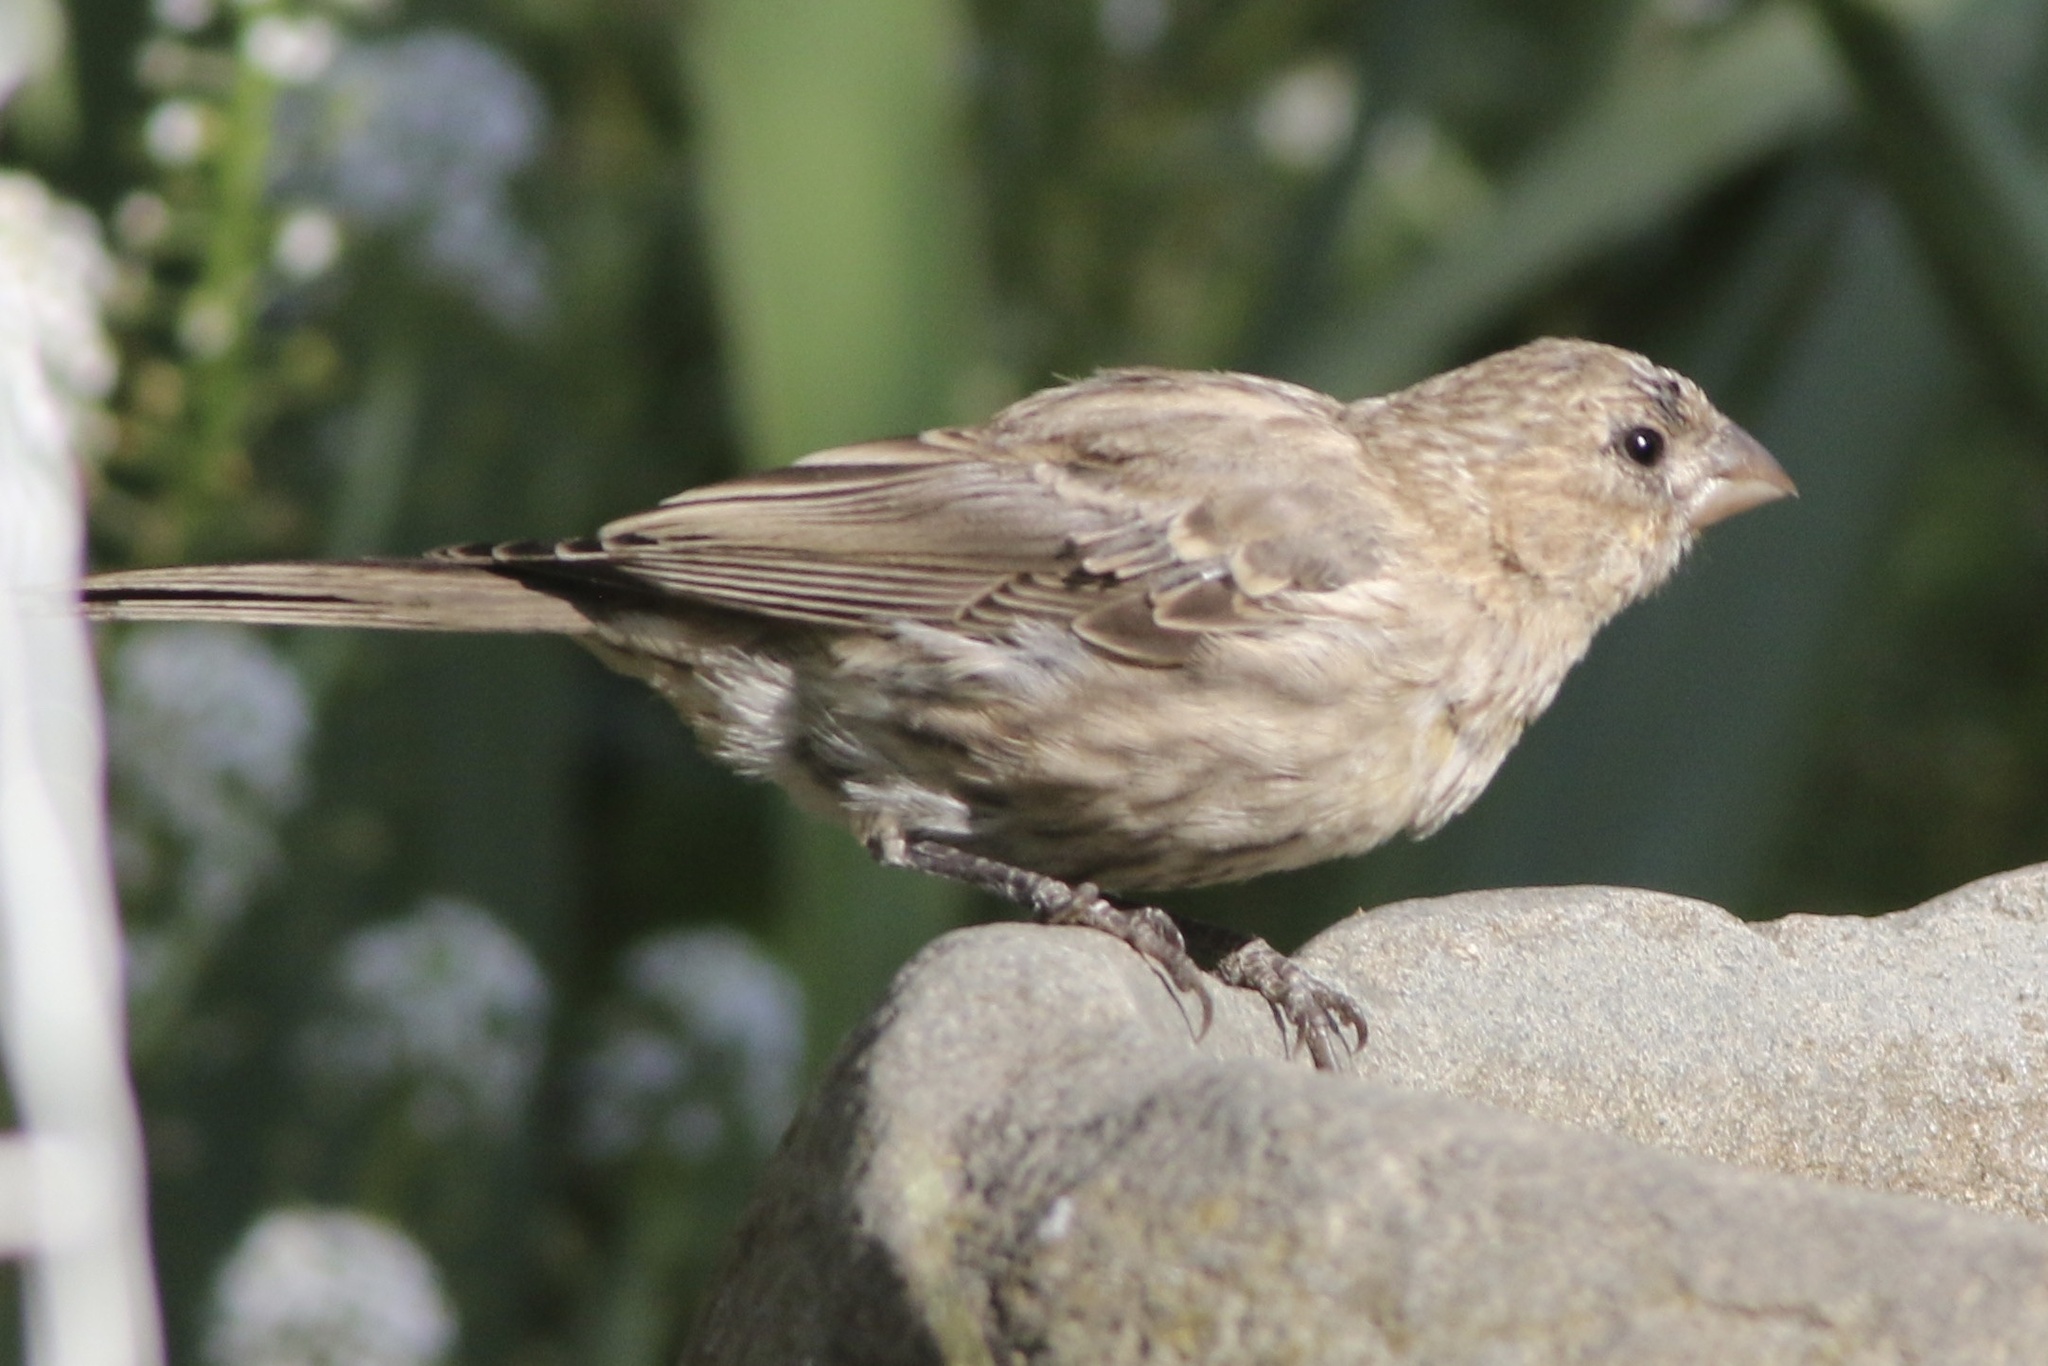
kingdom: Animalia
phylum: Chordata
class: Aves
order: Passeriformes
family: Fringillidae
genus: Haemorhous
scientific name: Haemorhous mexicanus
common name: House finch
